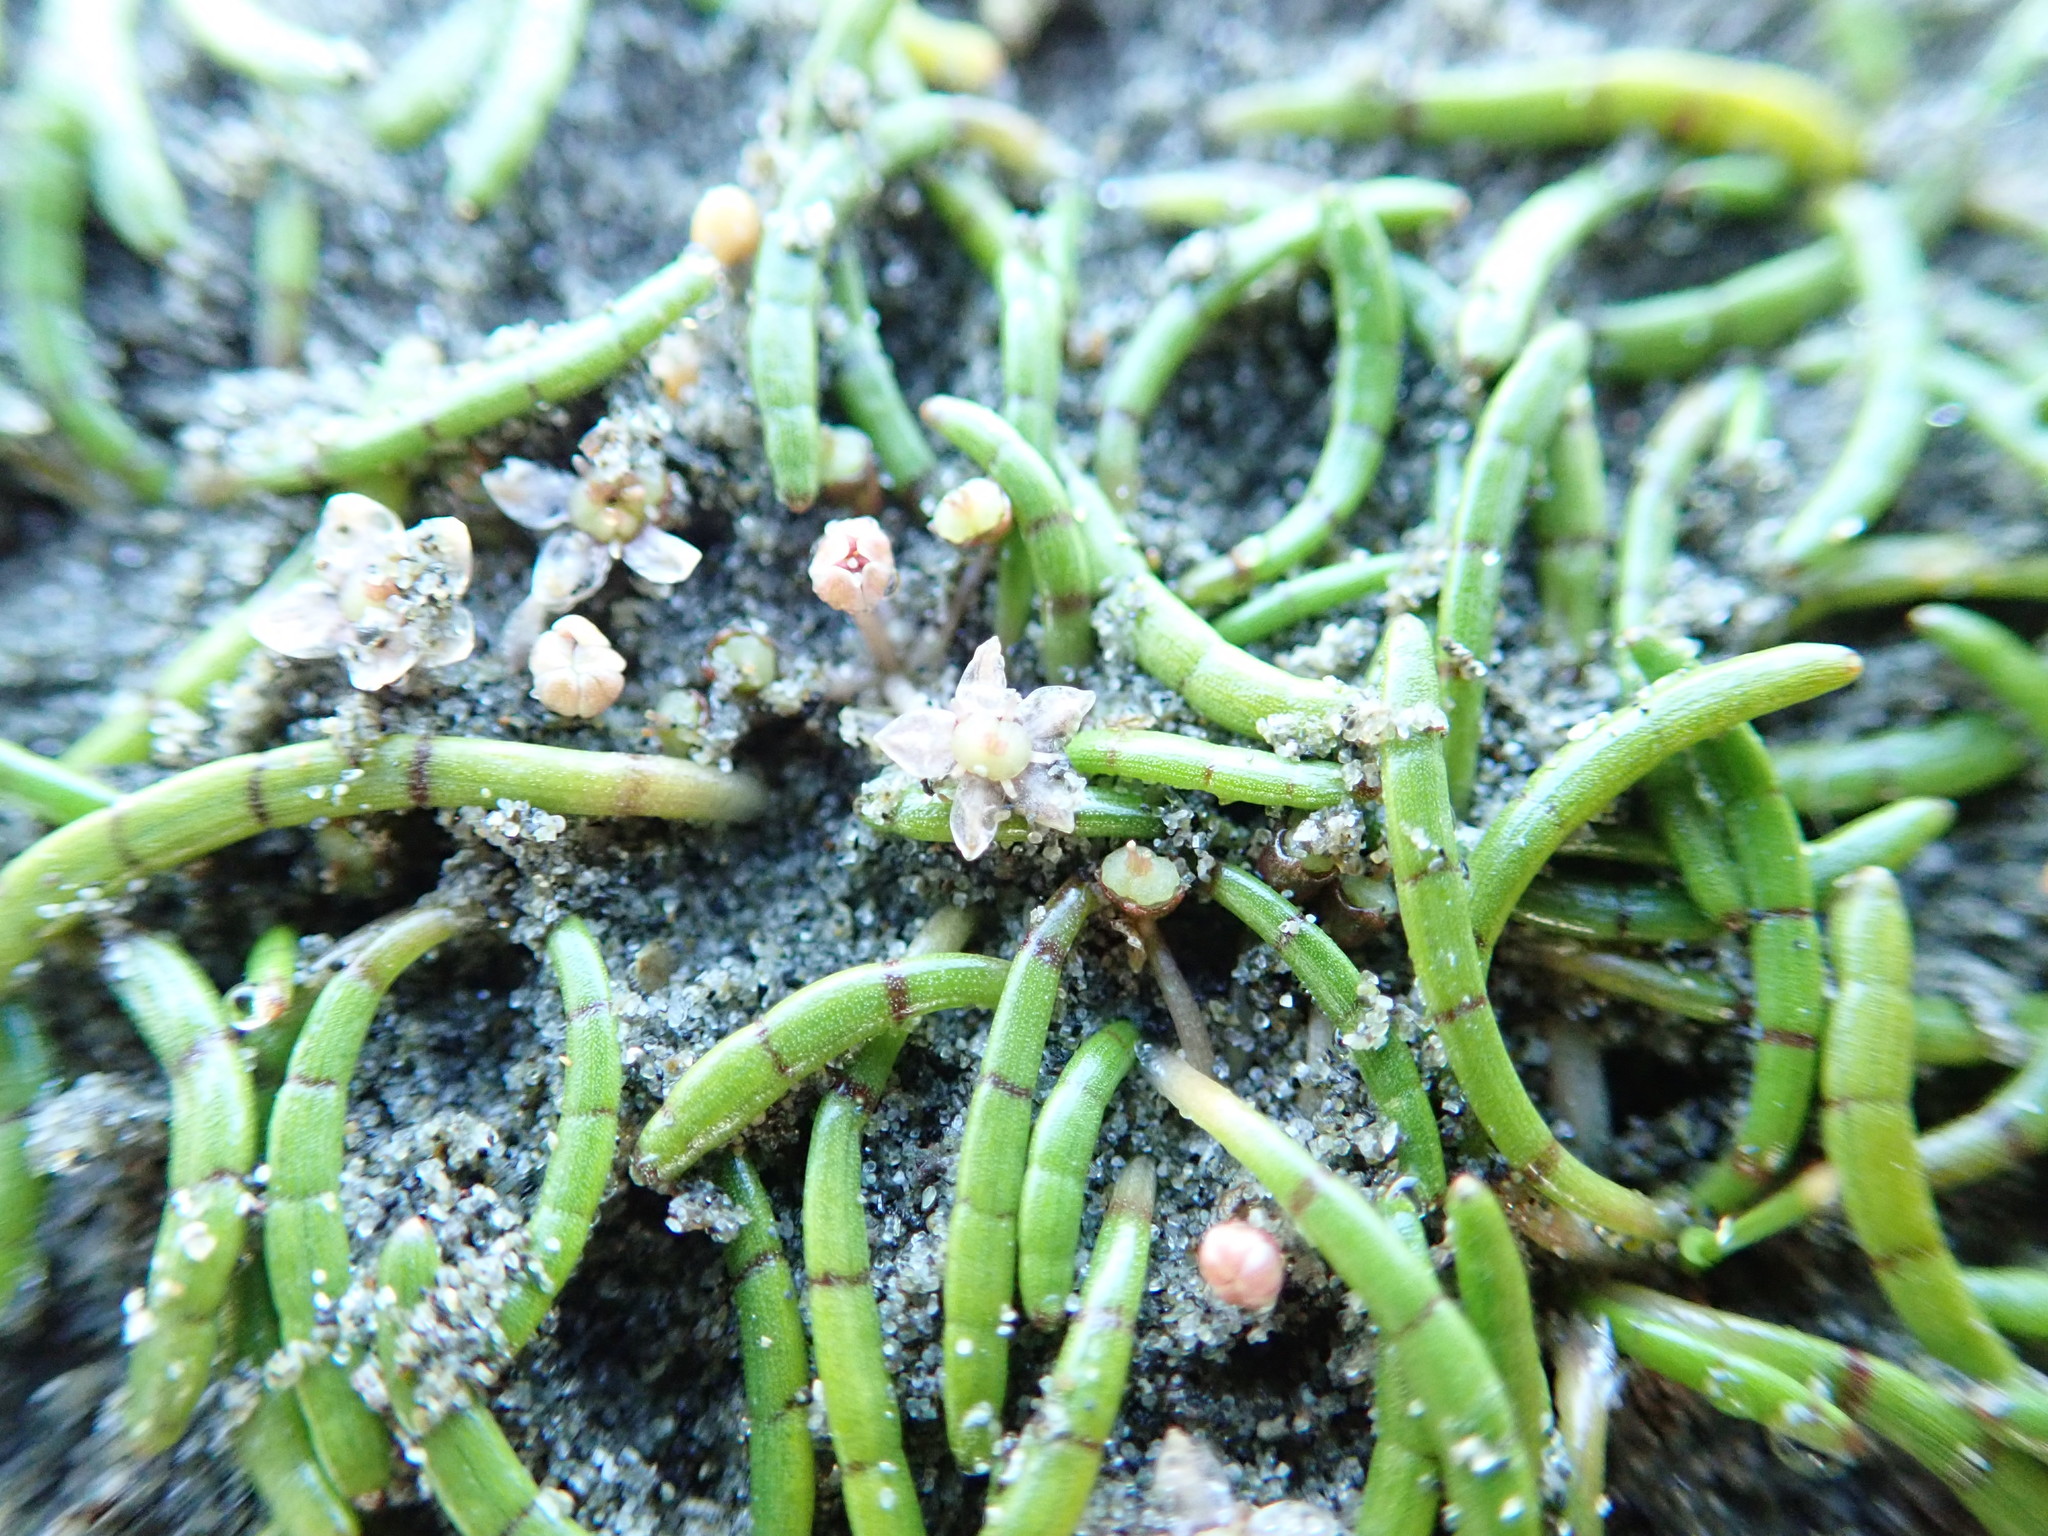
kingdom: Plantae
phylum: Tracheophyta
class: Magnoliopsida
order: Apiales
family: Apiaceae
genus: Lilaeopsis
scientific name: Lilaeopsis novae-zelandiae
